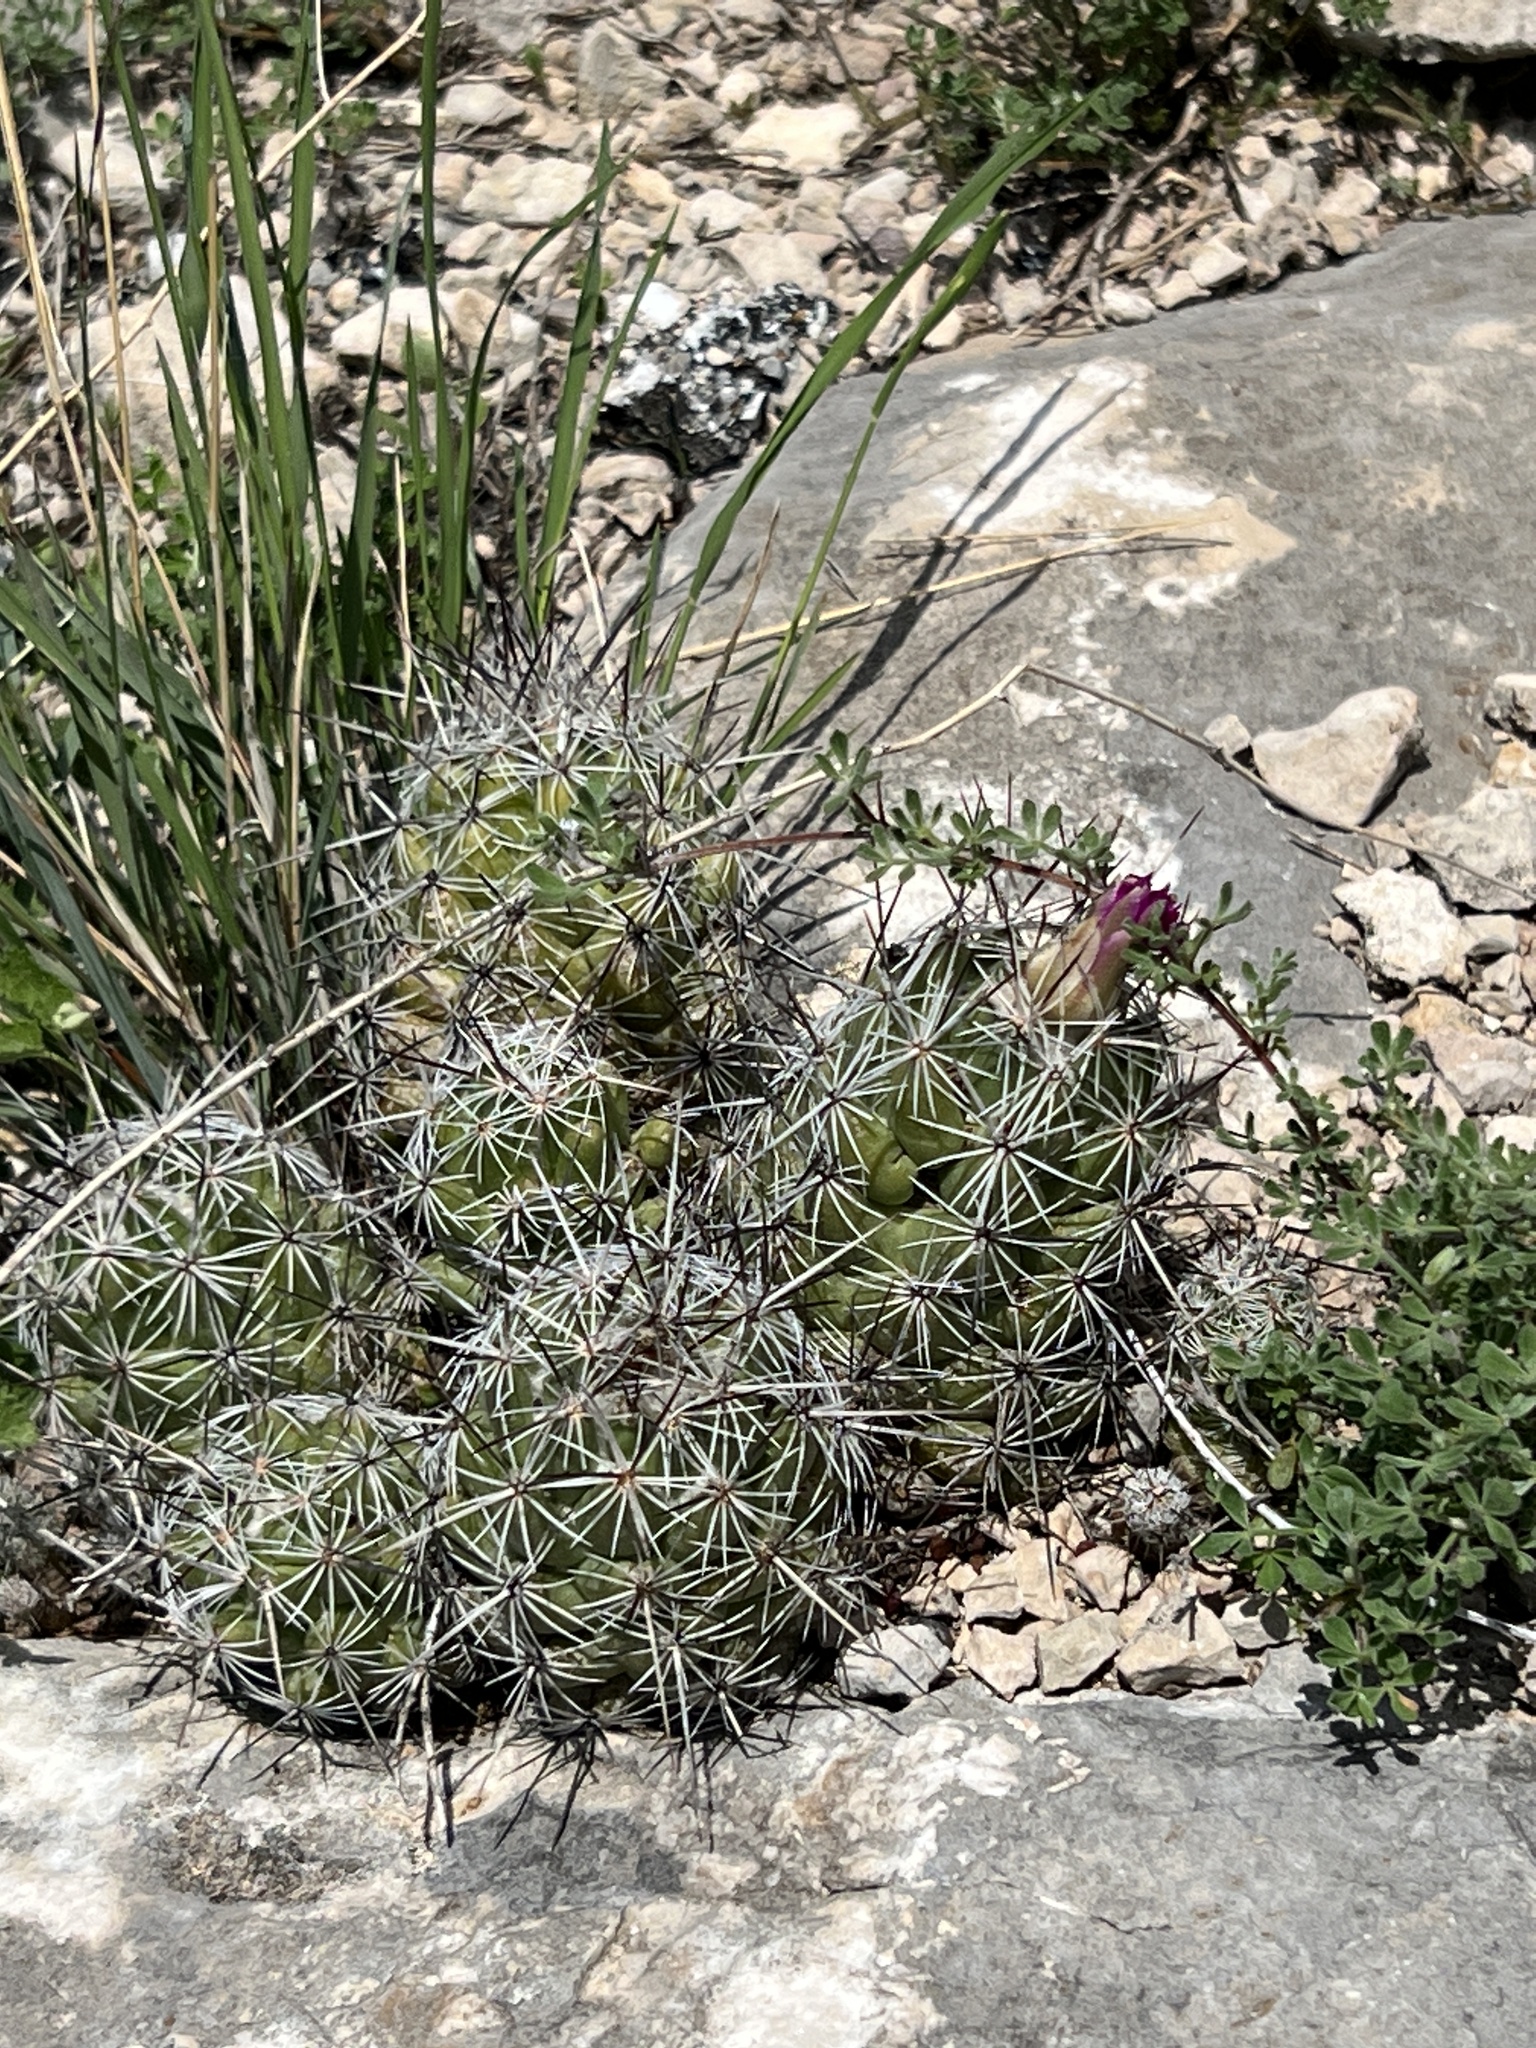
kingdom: Plantae
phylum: Tracheophyta
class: Magnoliopsida
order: Caryophyllales
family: Cactaceae
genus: Cochemiea
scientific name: Cochemiea conoidea
